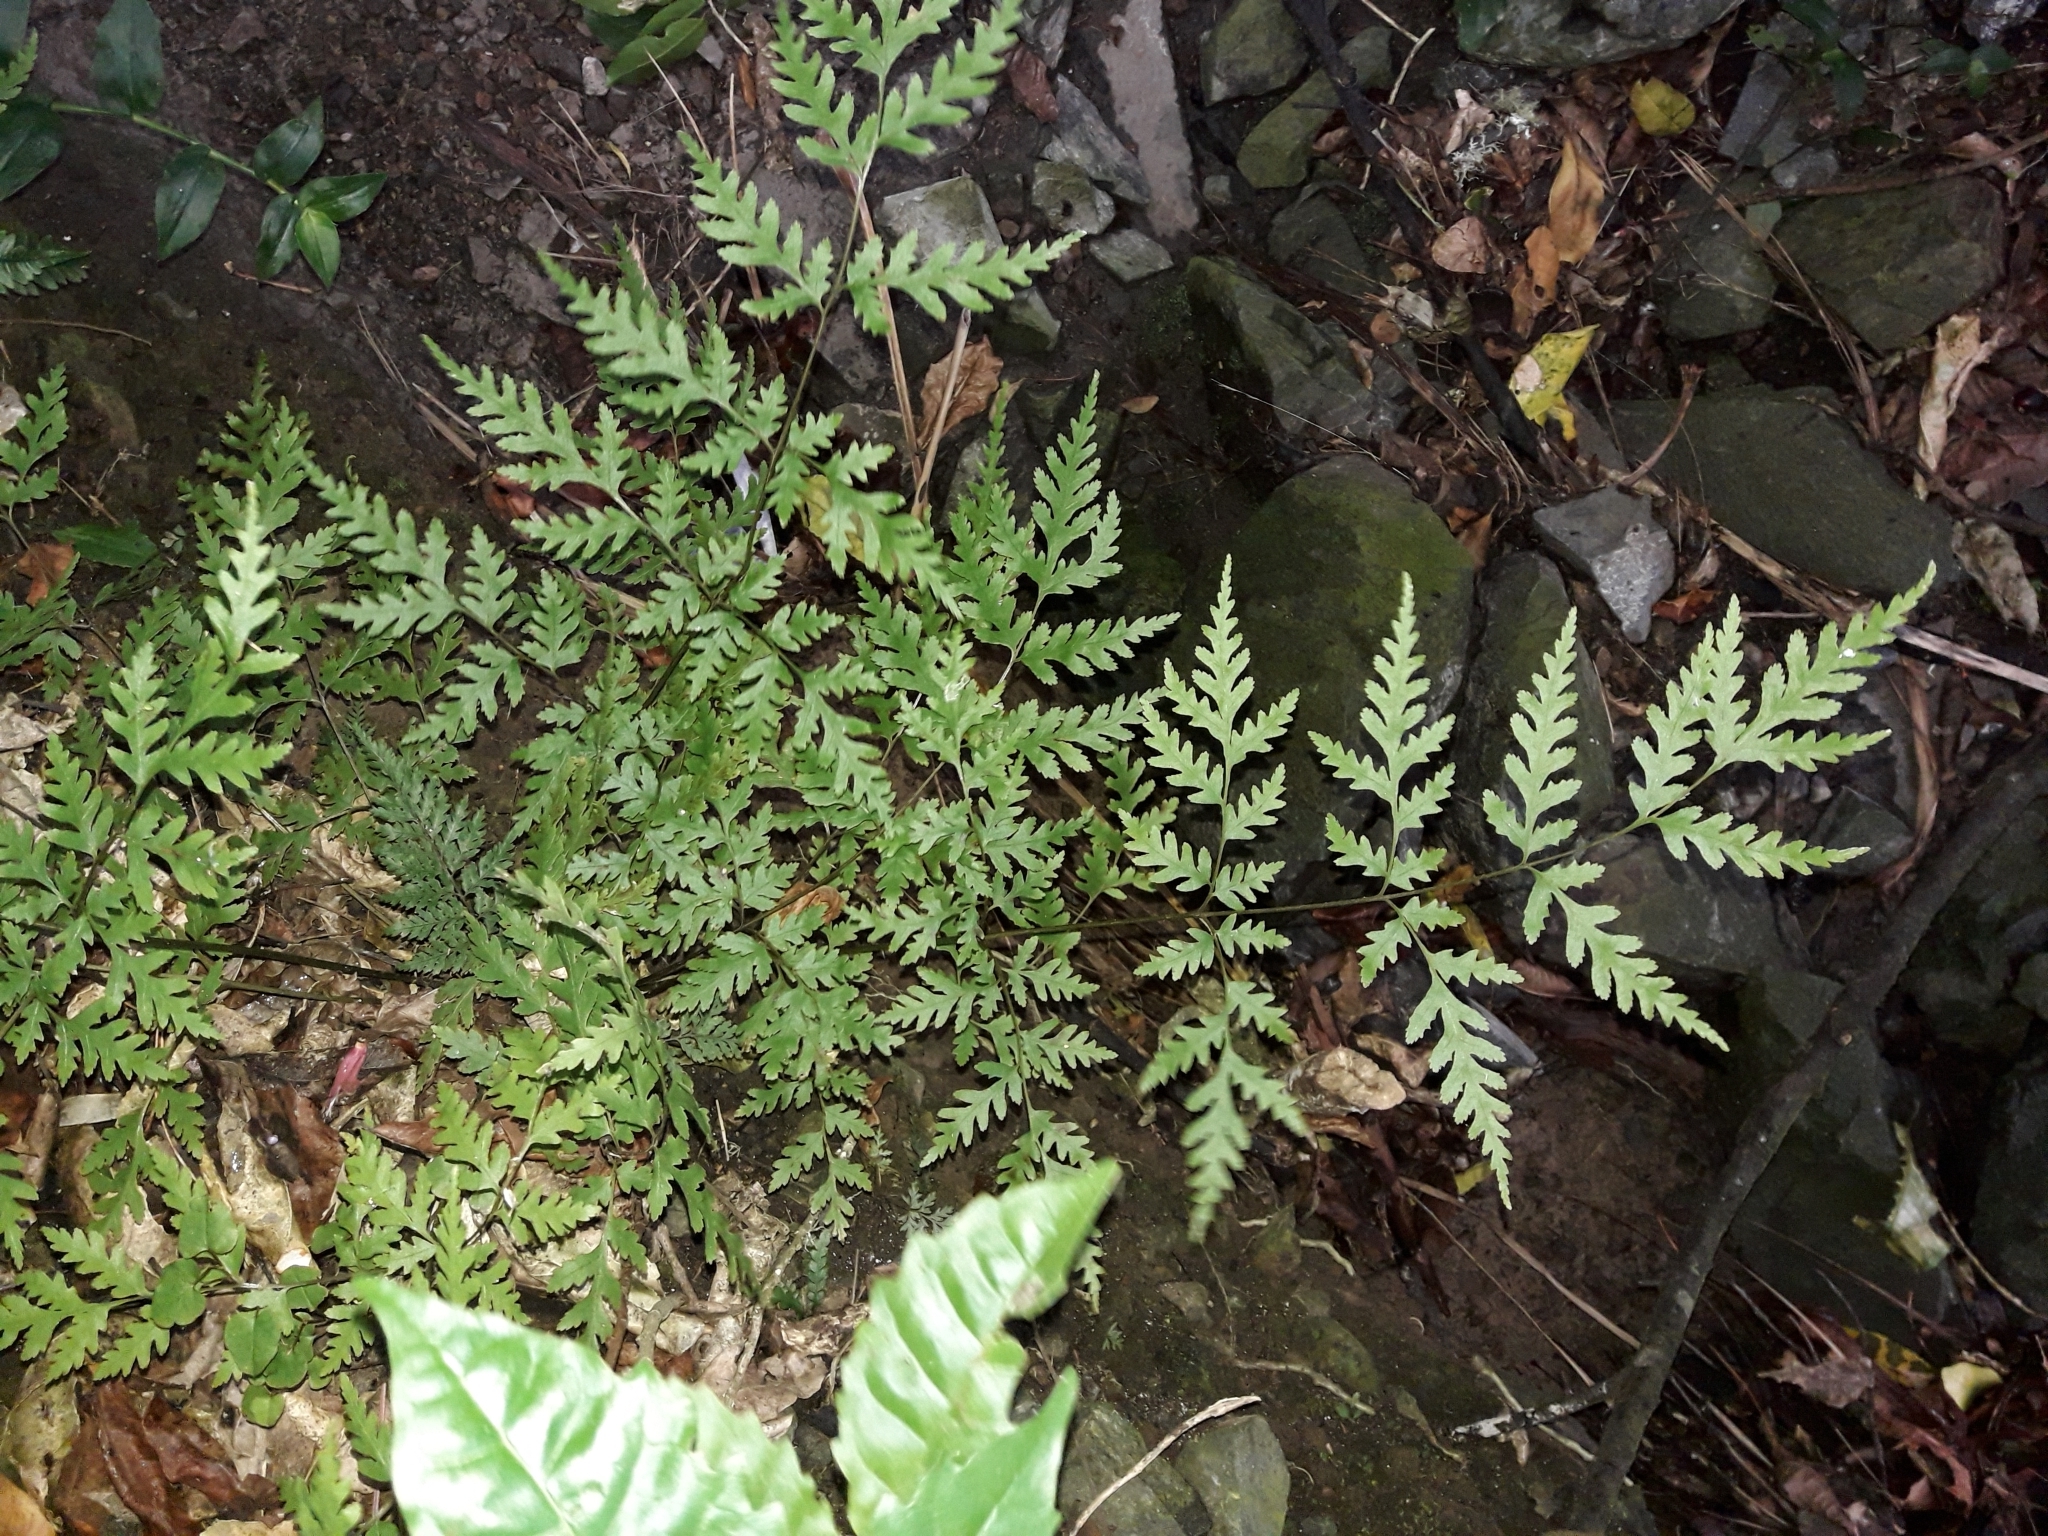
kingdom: Plantae
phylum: Tracheophyta
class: Polypodiopsida
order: Polypodiales
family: Pteridaceae
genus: Pteris
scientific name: Pteris macilenta
